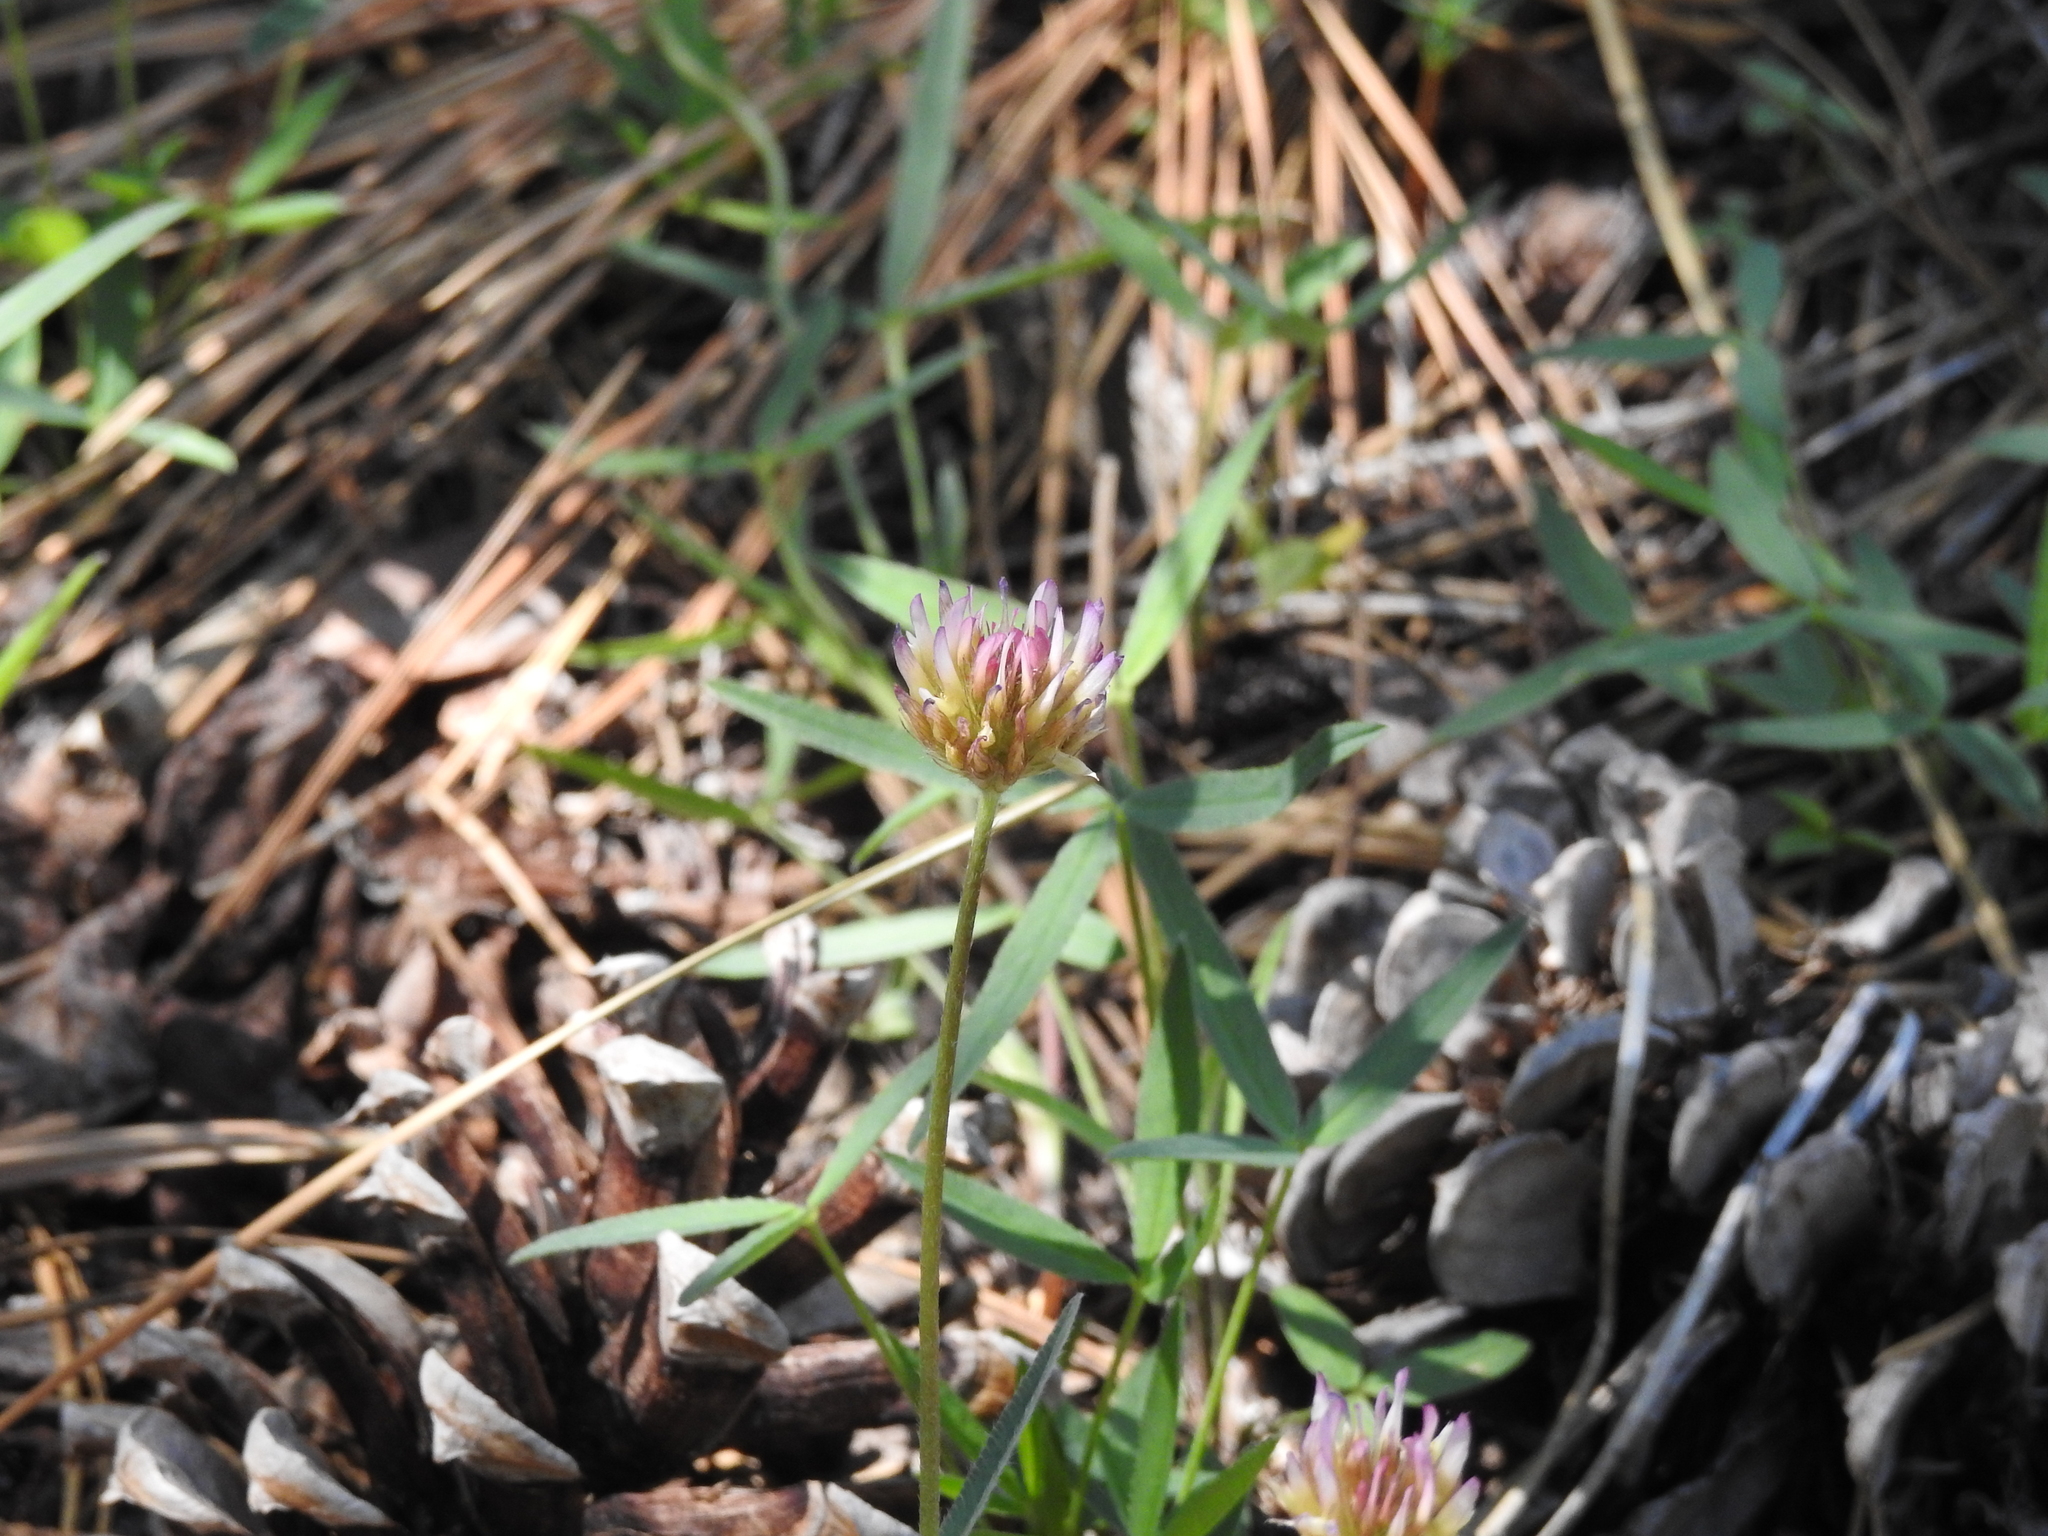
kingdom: Plantae
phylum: Tracheophyta
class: Magnoliopsida
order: Fabales
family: Fabaceae
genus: Trifolium
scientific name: Trifolium longipes
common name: Long-stalk clover
